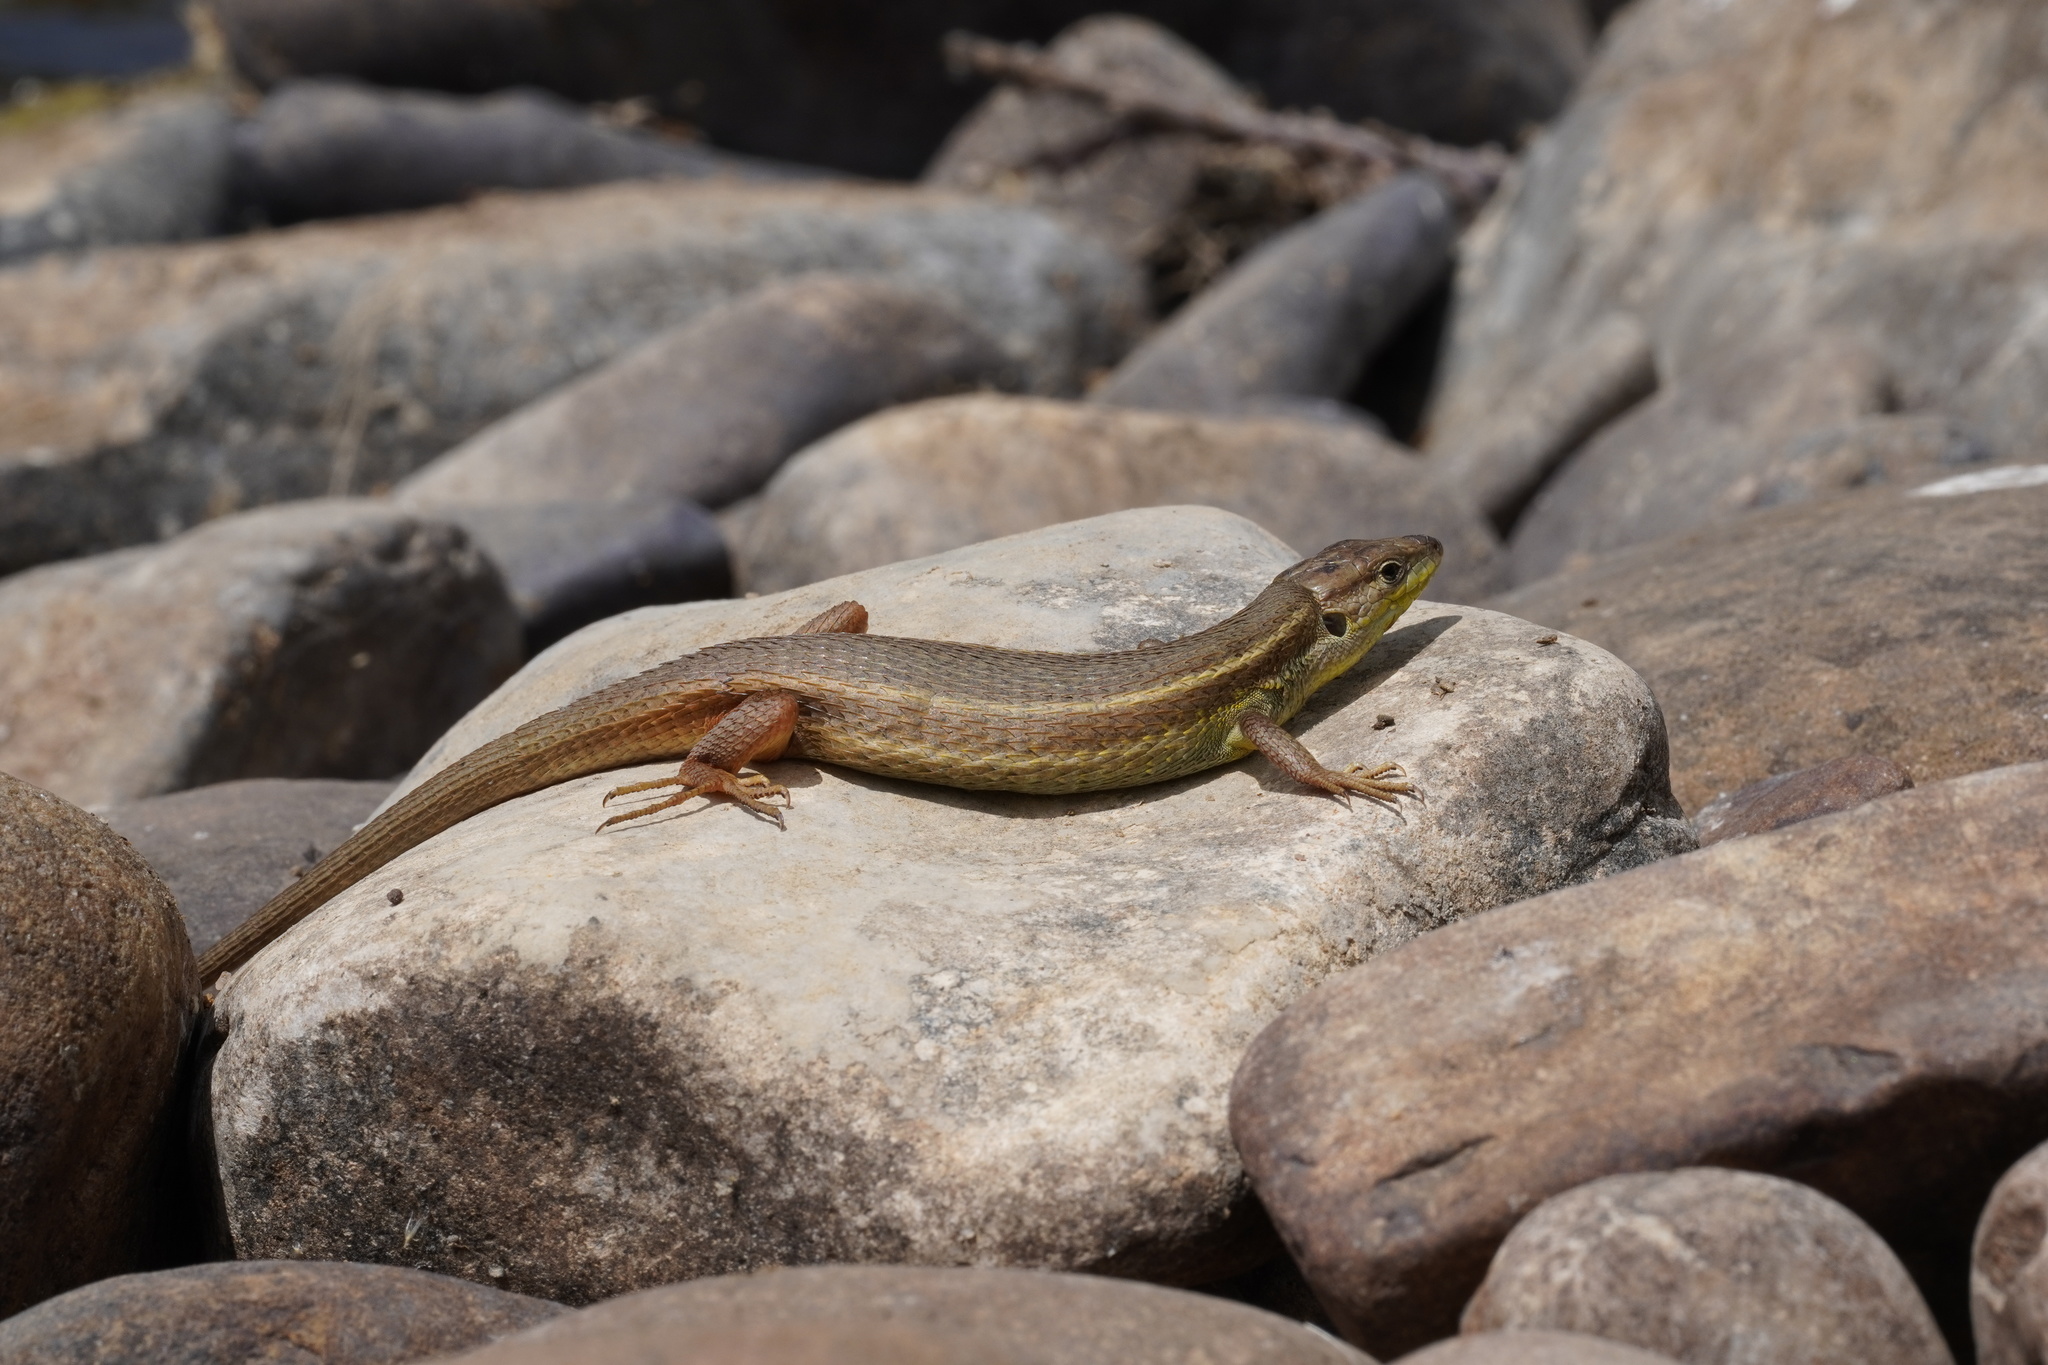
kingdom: Animalia
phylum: Chordata
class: Squamata
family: Lacertidae
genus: Psammodromus
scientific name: Psammodromus algirus
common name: Algerian psammodromus
